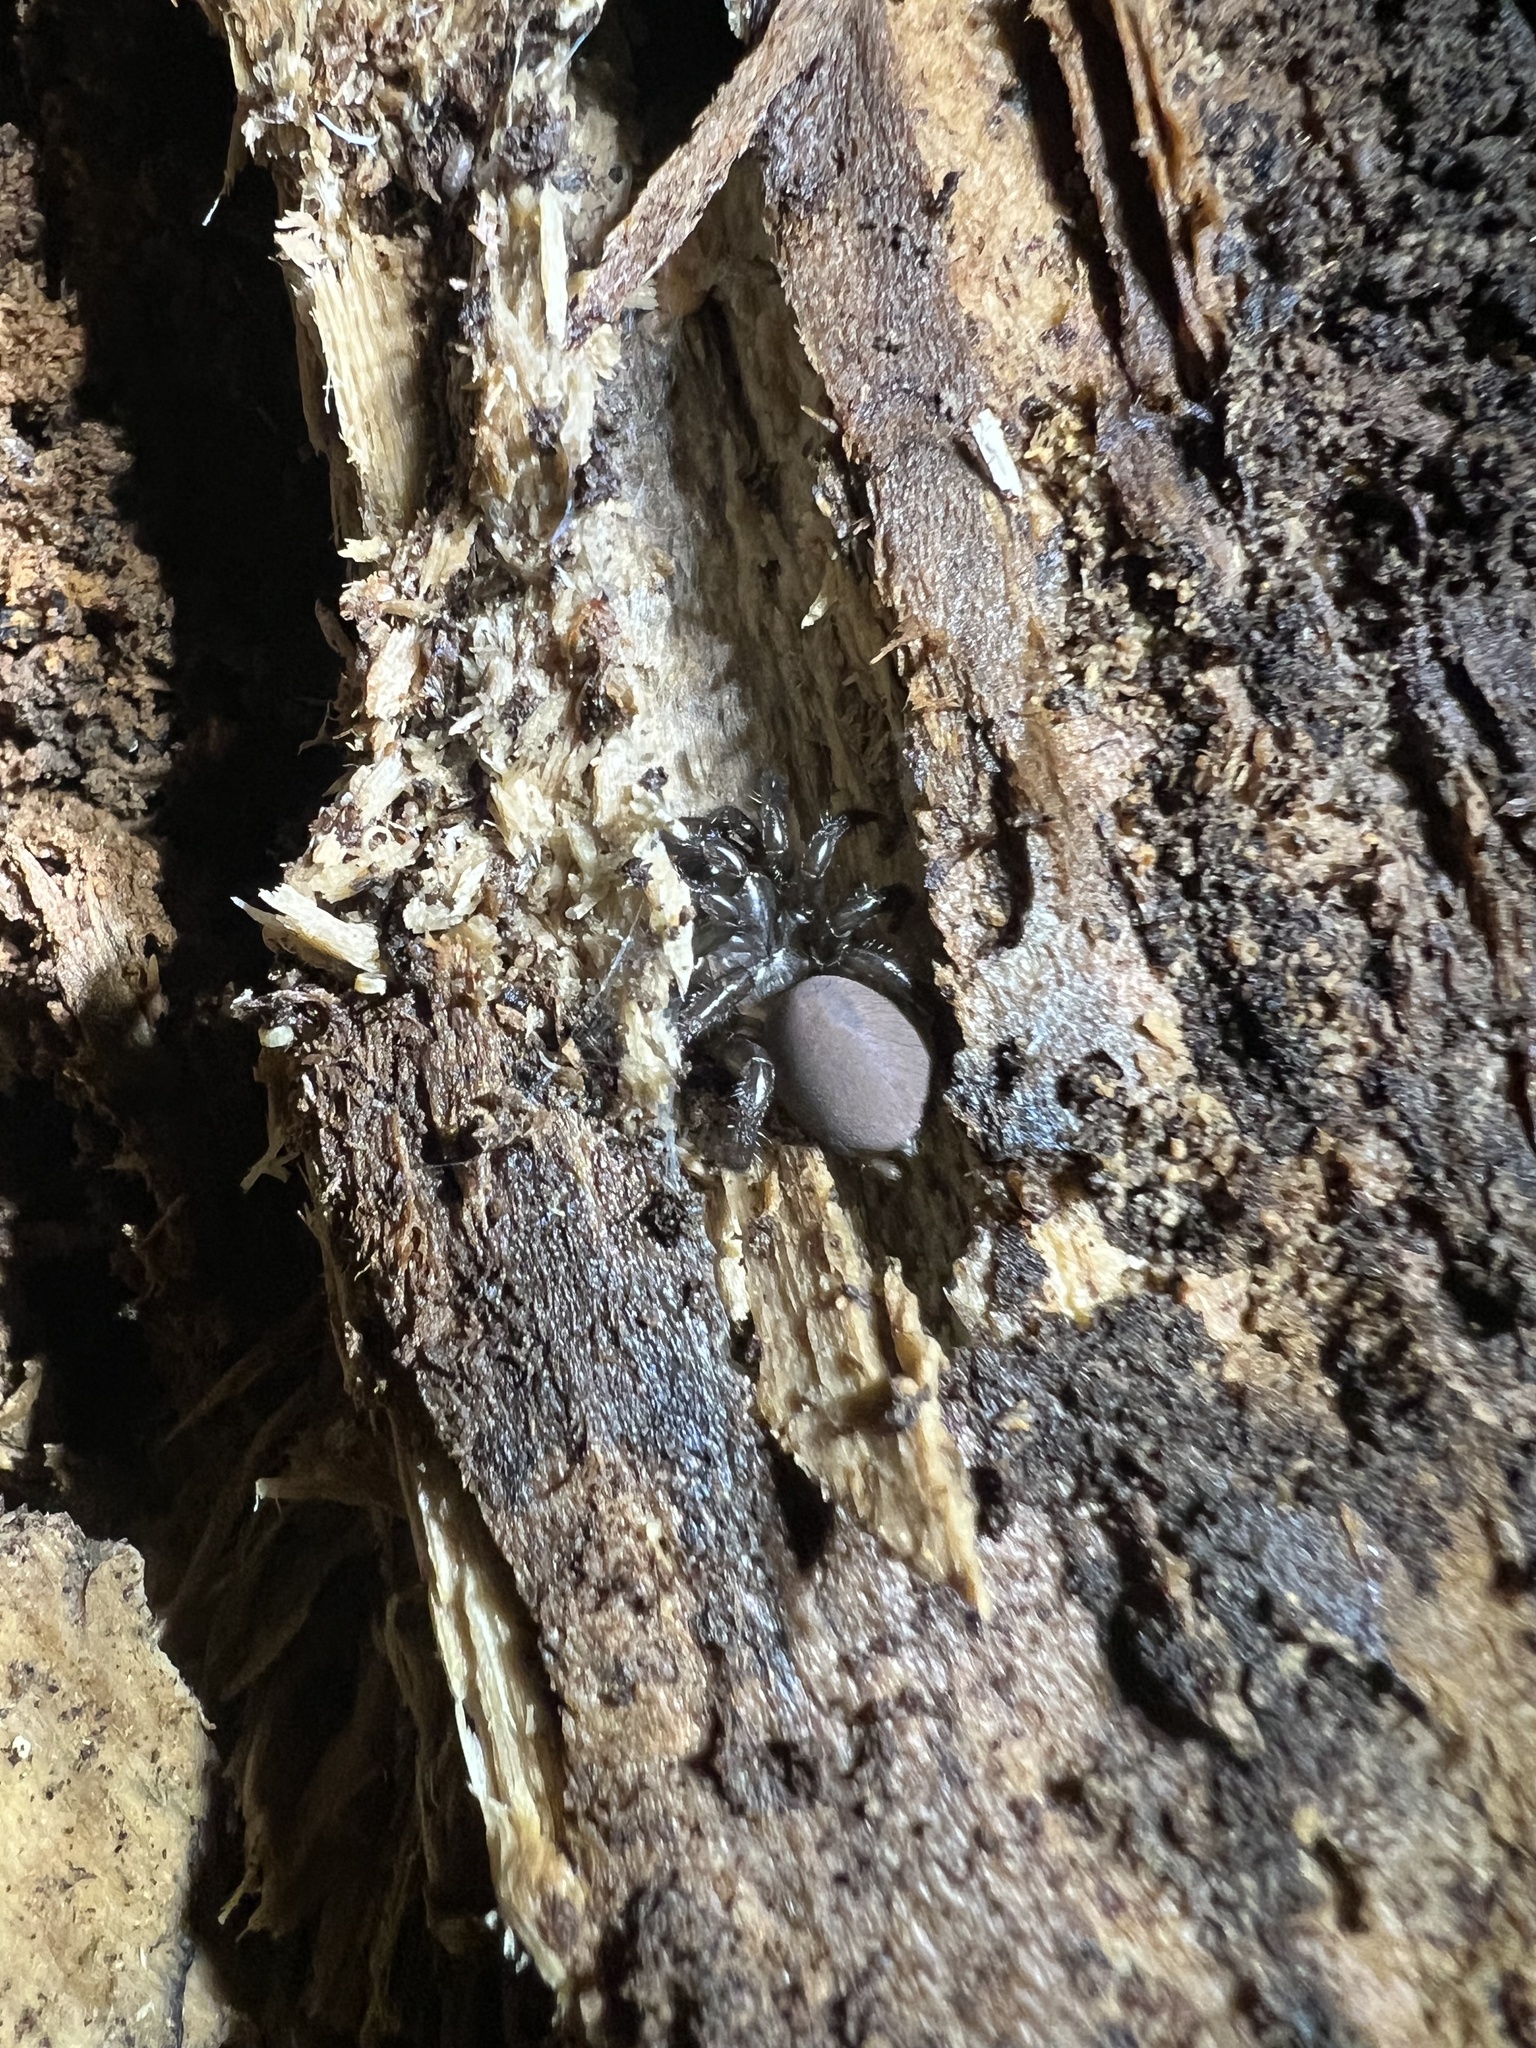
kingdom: Animalia
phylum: Arthropoda
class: Arachnida
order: Araneae
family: Antrodiaetidae
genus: Antrodiaetus
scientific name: Antrodiaetus unicolor
